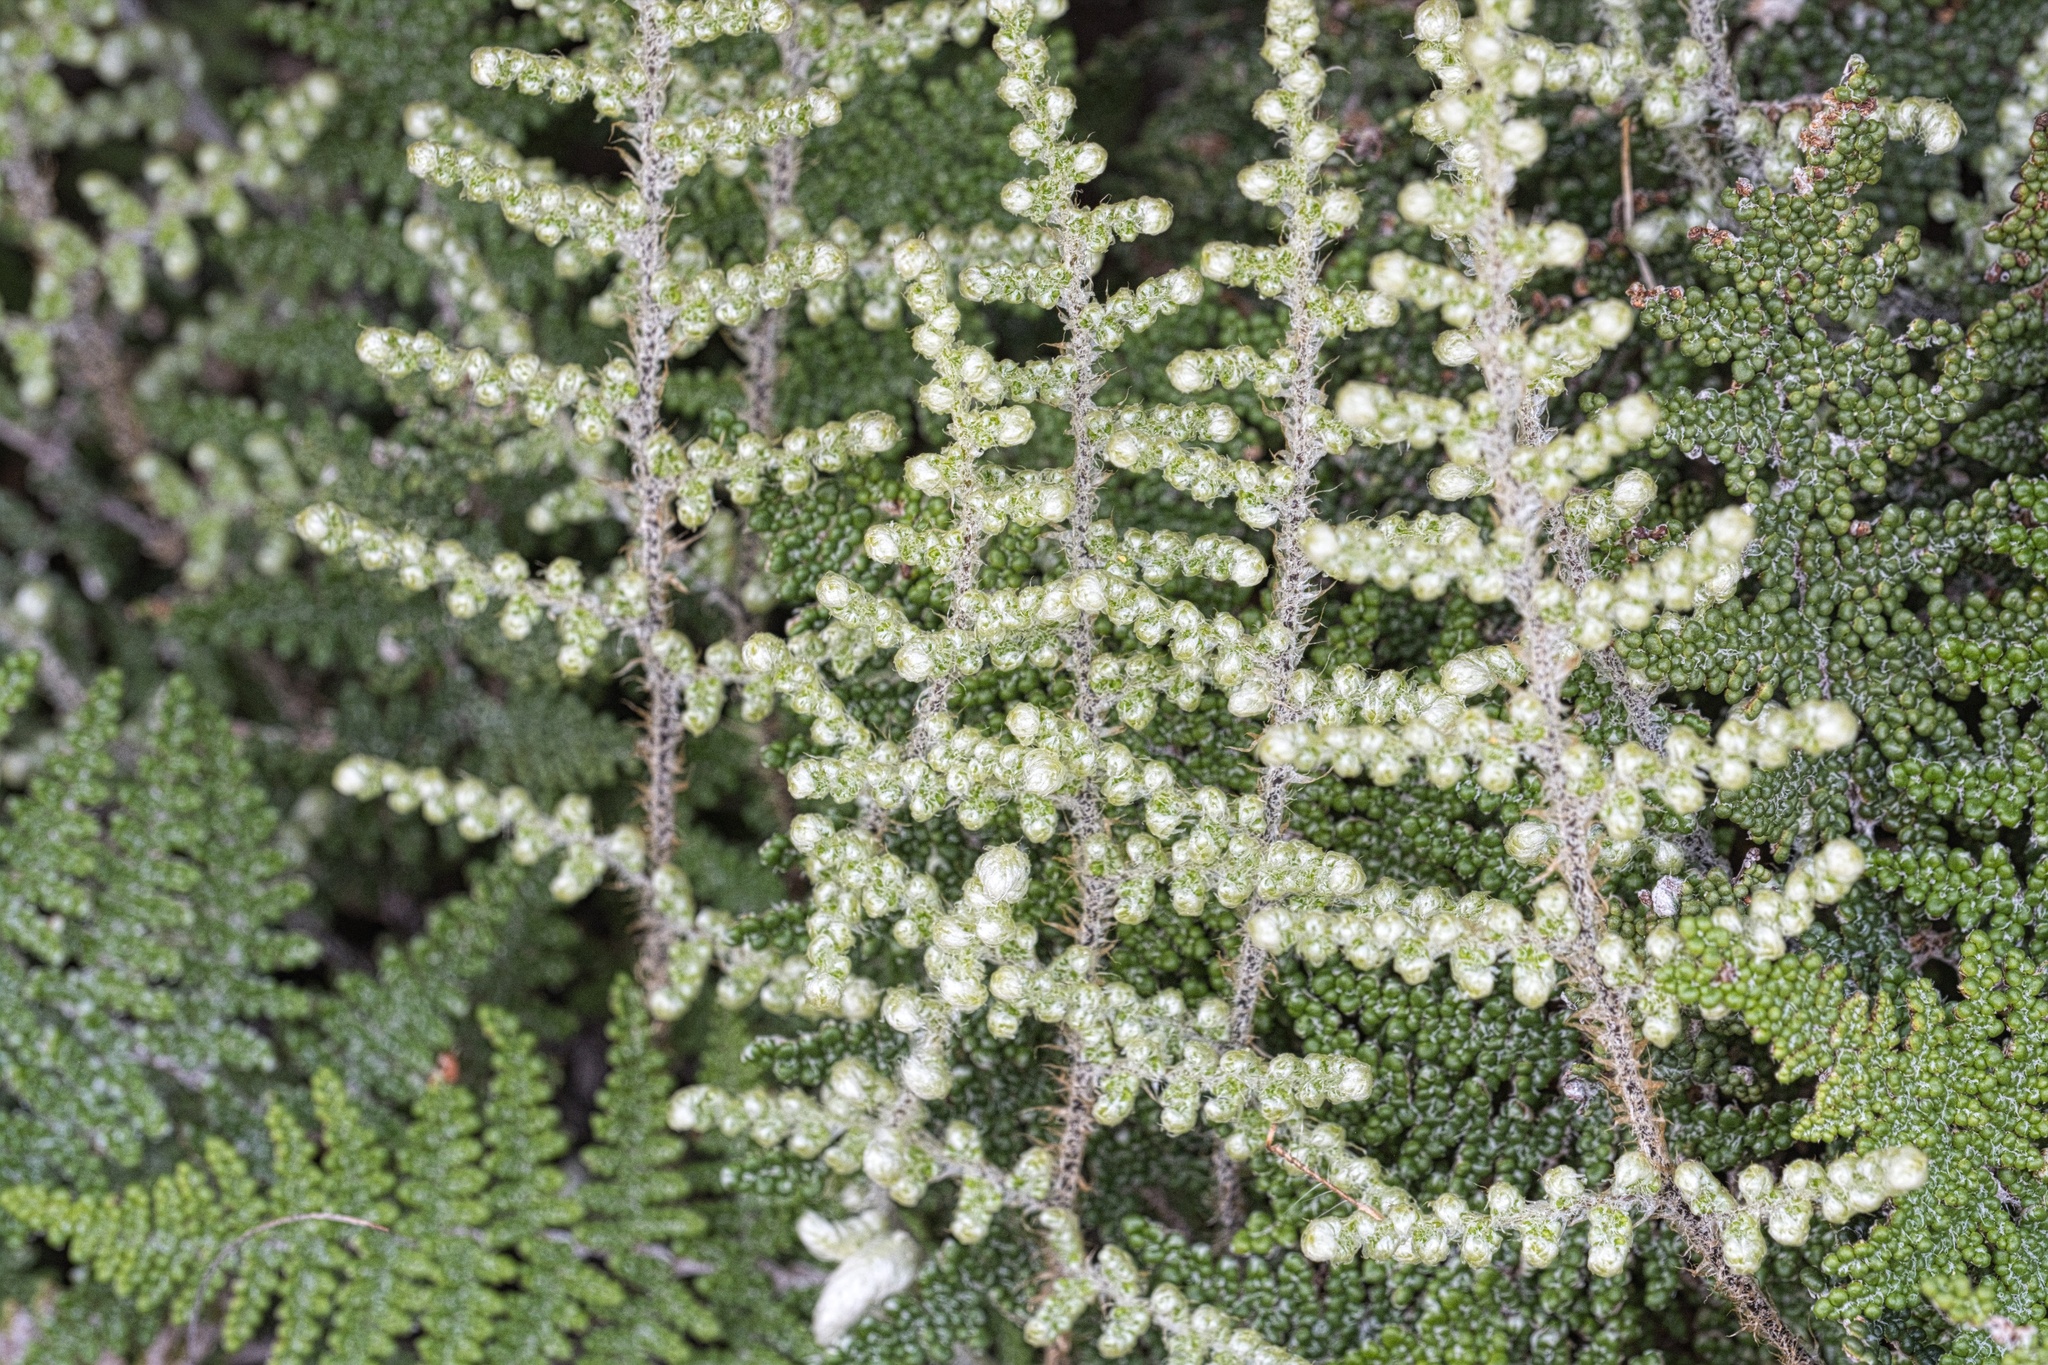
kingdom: Plantae
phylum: Tracheophyta
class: Polypodiopsida
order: Polypodiales
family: Pteridaceae
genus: Myriopteris
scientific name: Myriopteris covillei
